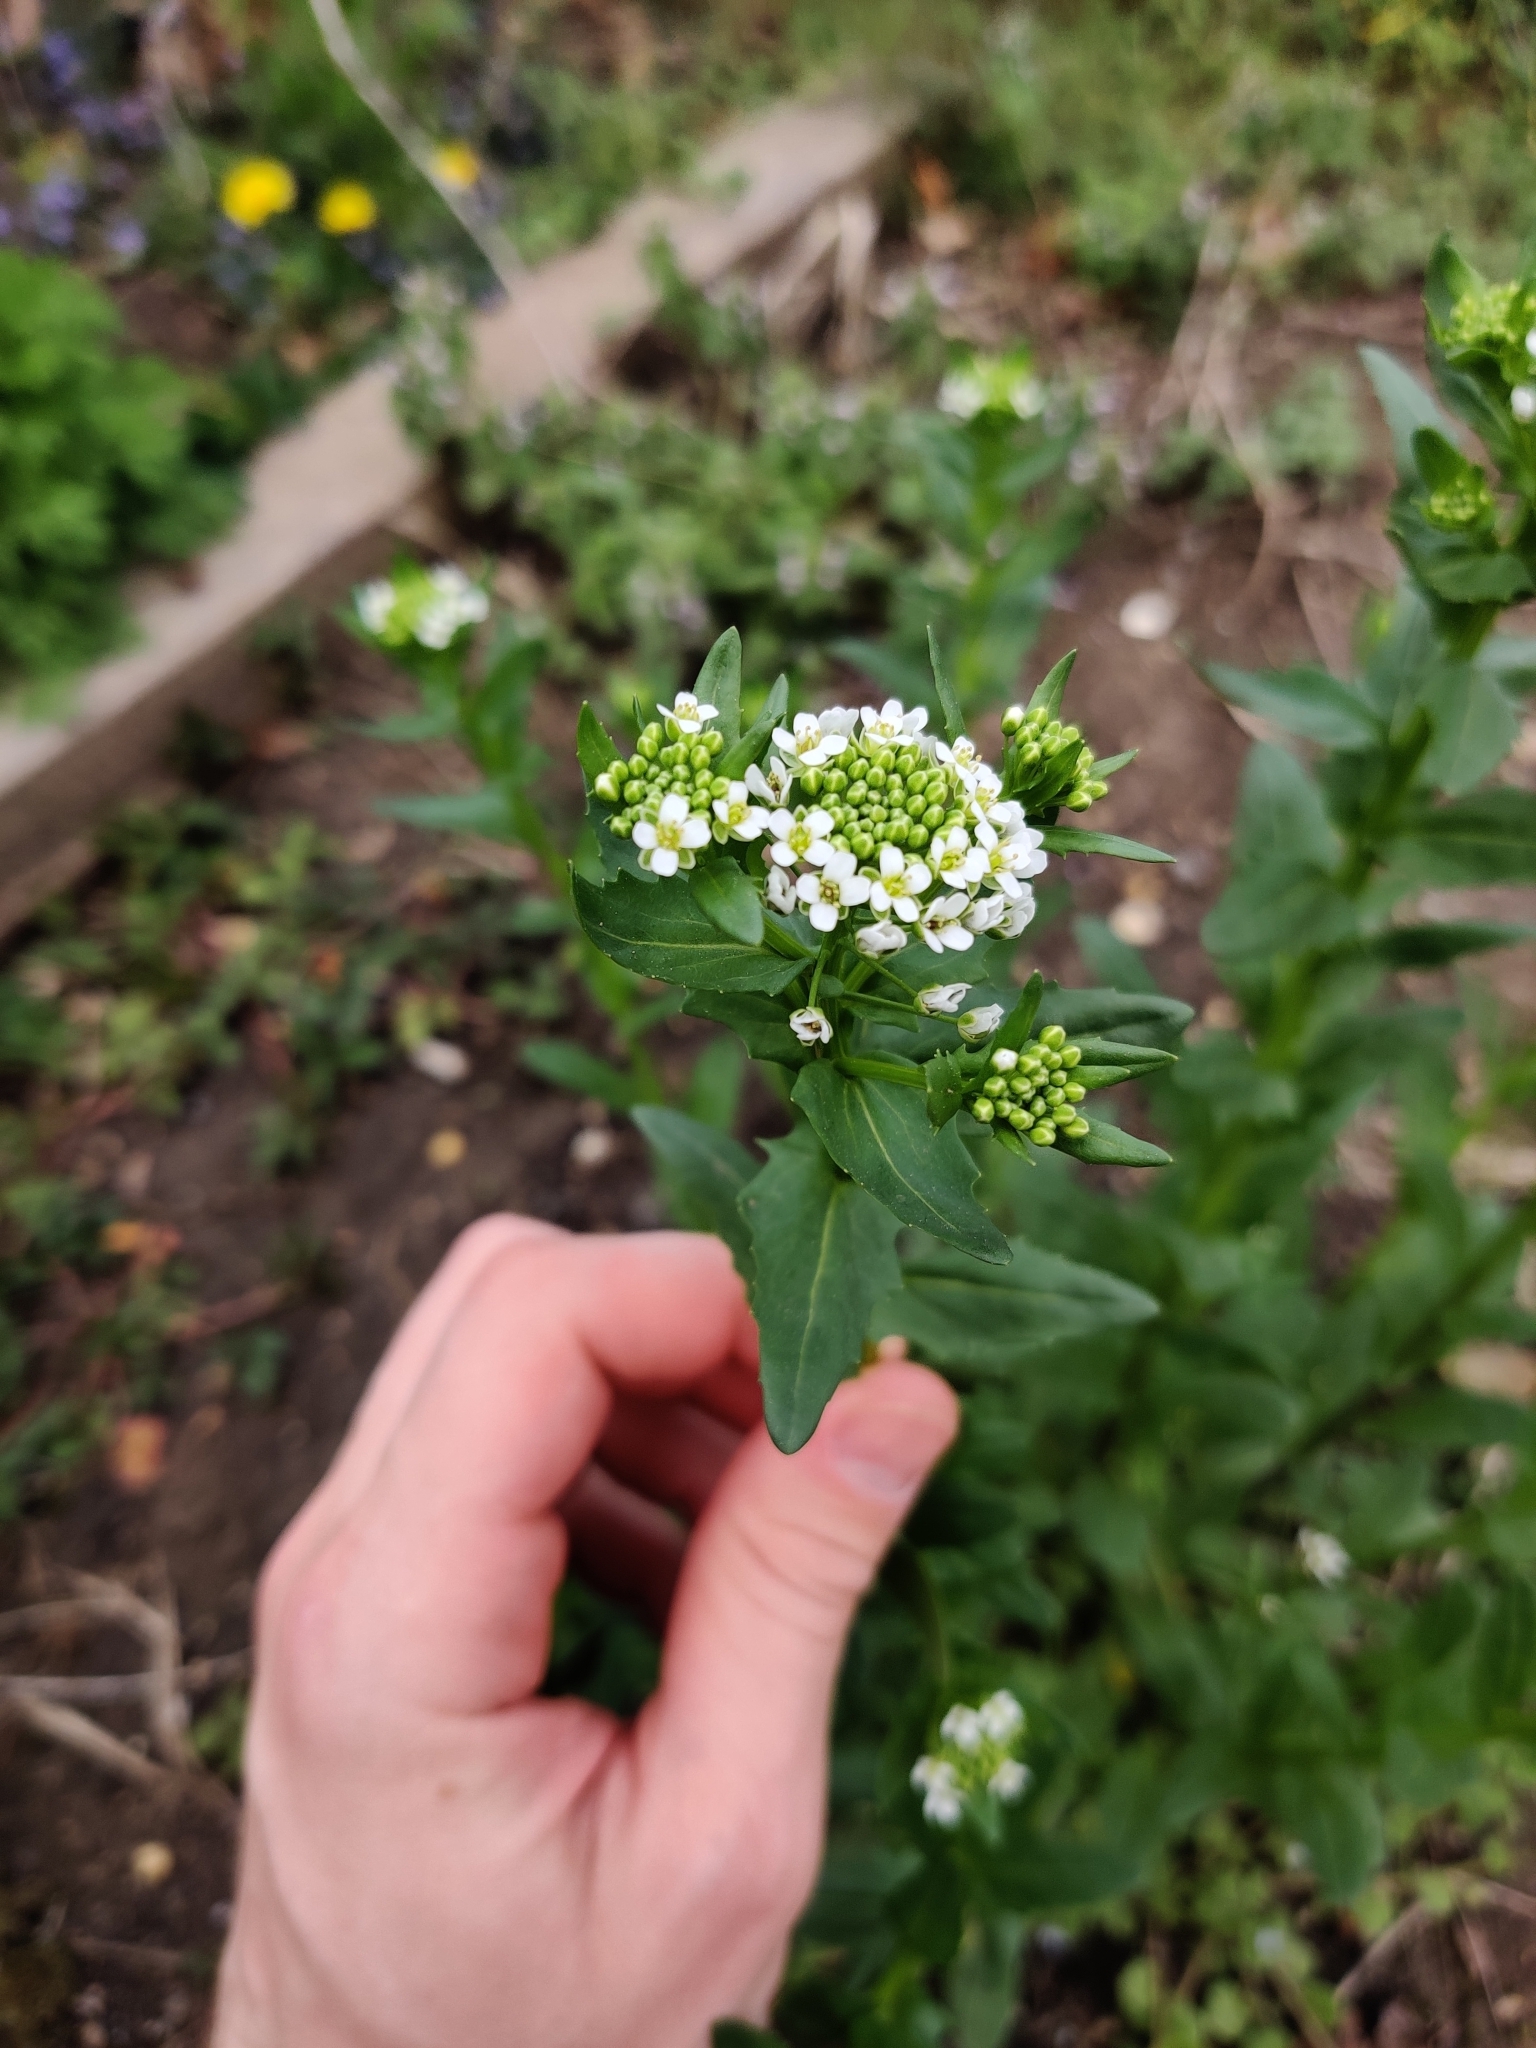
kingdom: Plantae
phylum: Tracheophyta
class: Magnoliopsida
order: Brassicales
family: Brassicaceae
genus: Thlaspi
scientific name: Thlaspi arvense
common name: Field pennycress
